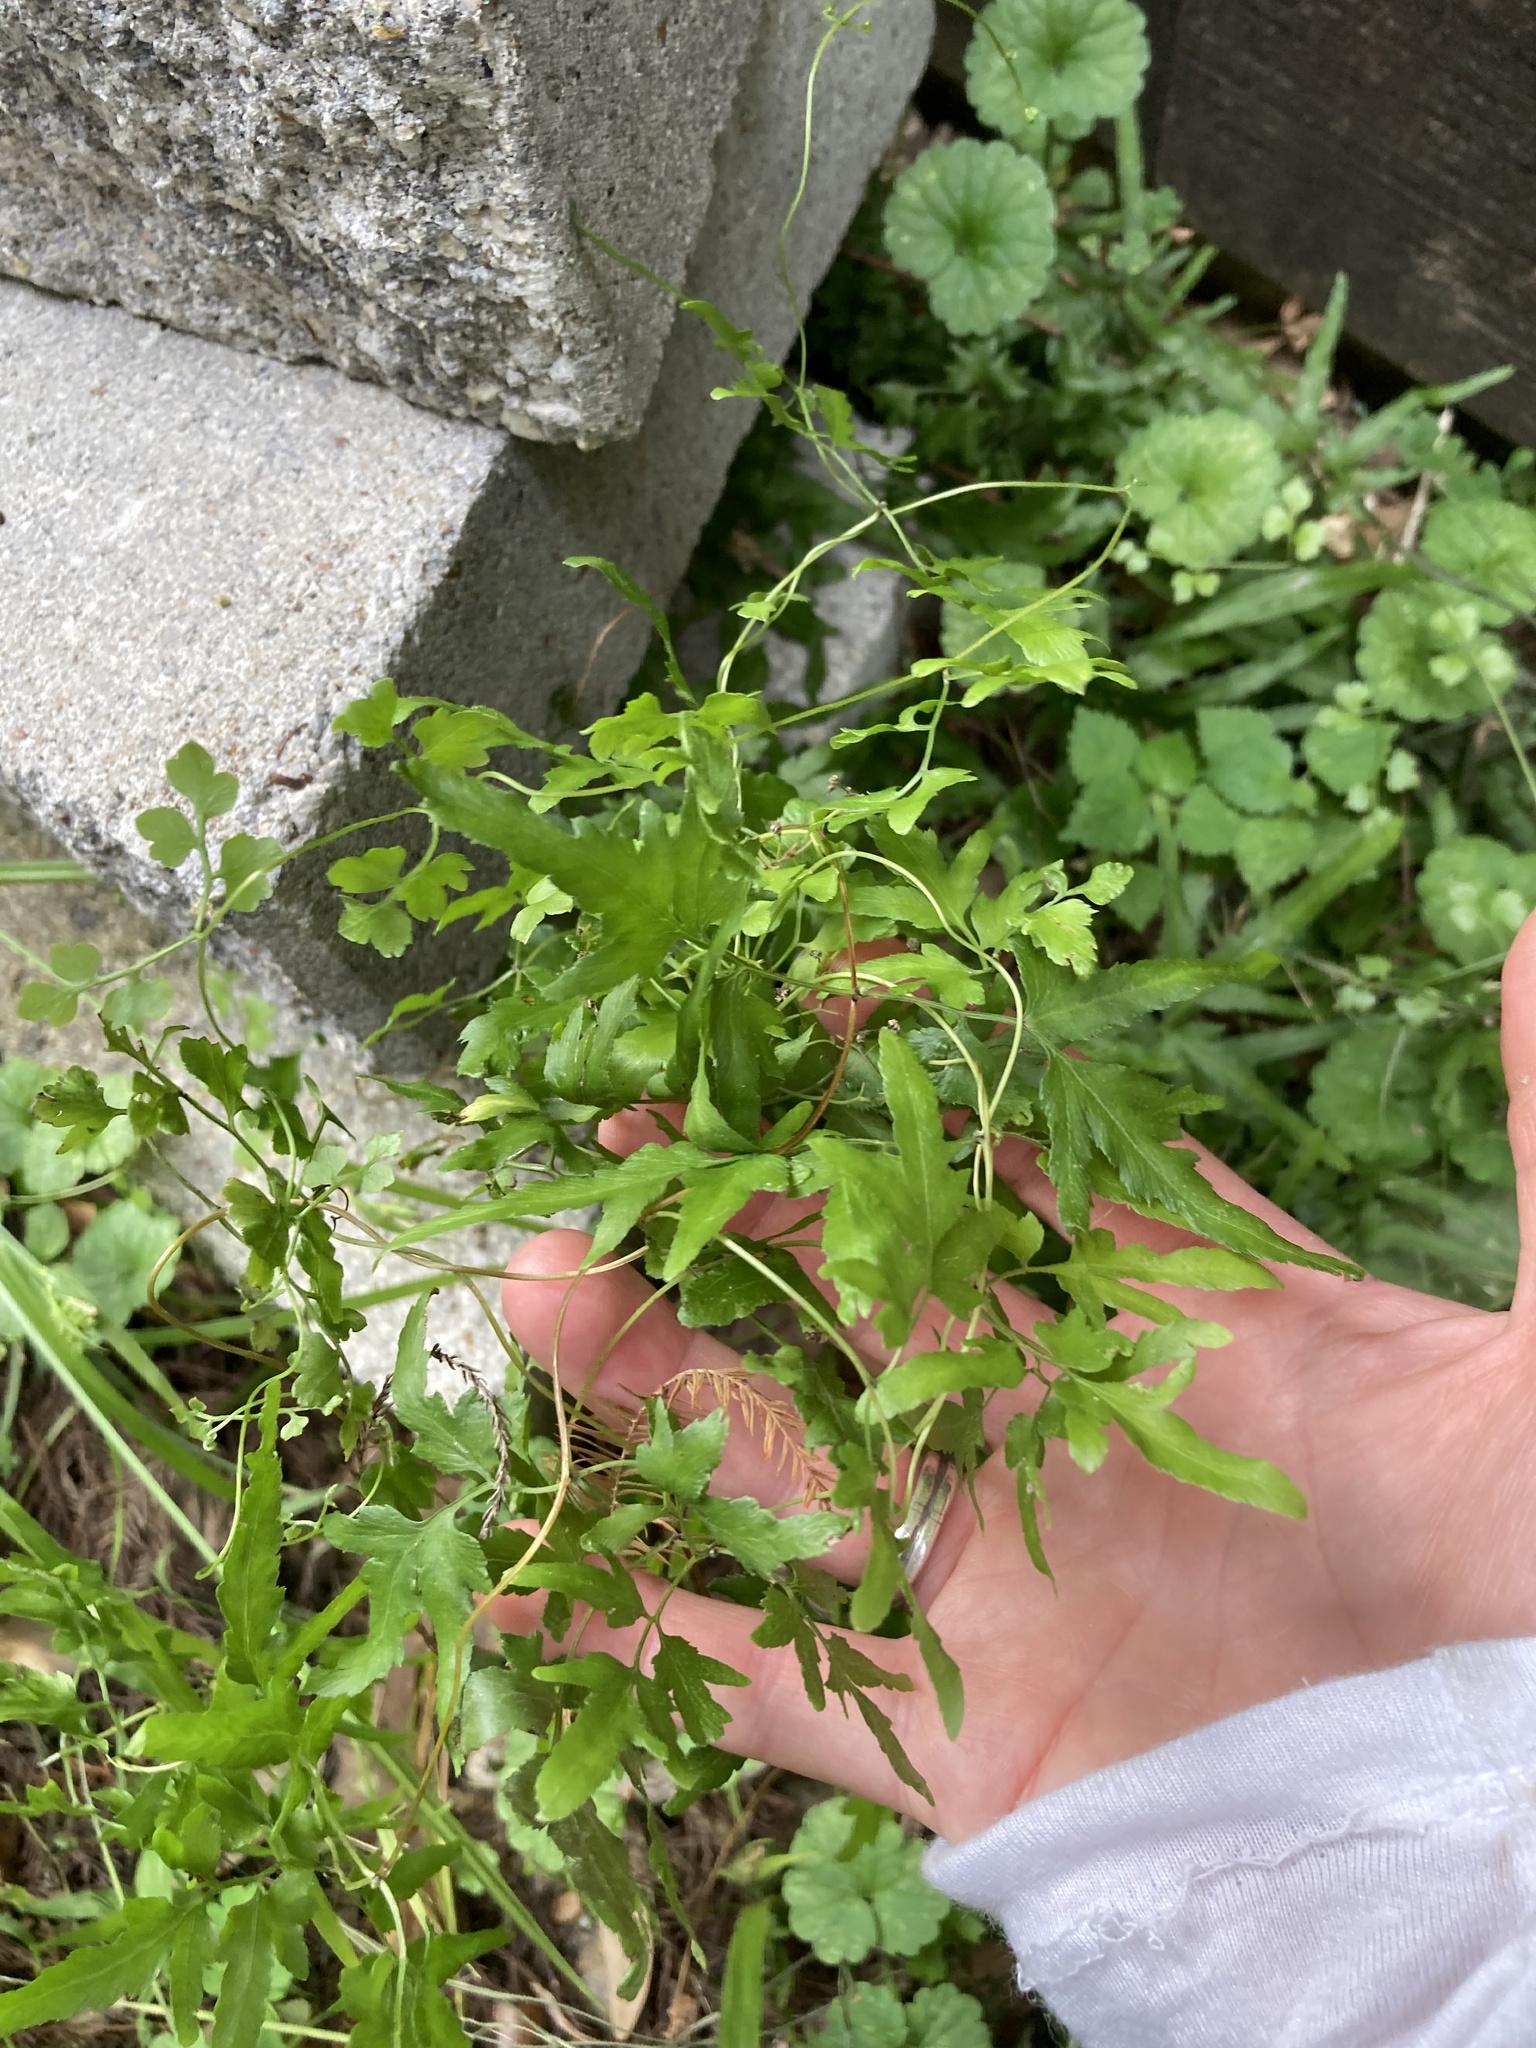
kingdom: Plantae
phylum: Tracheophyta
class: Polypodiopsida
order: Schizaeales
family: Lygodiaceae
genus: Lygodium
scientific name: Lygodium japonicum
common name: Japanese climbing fern
